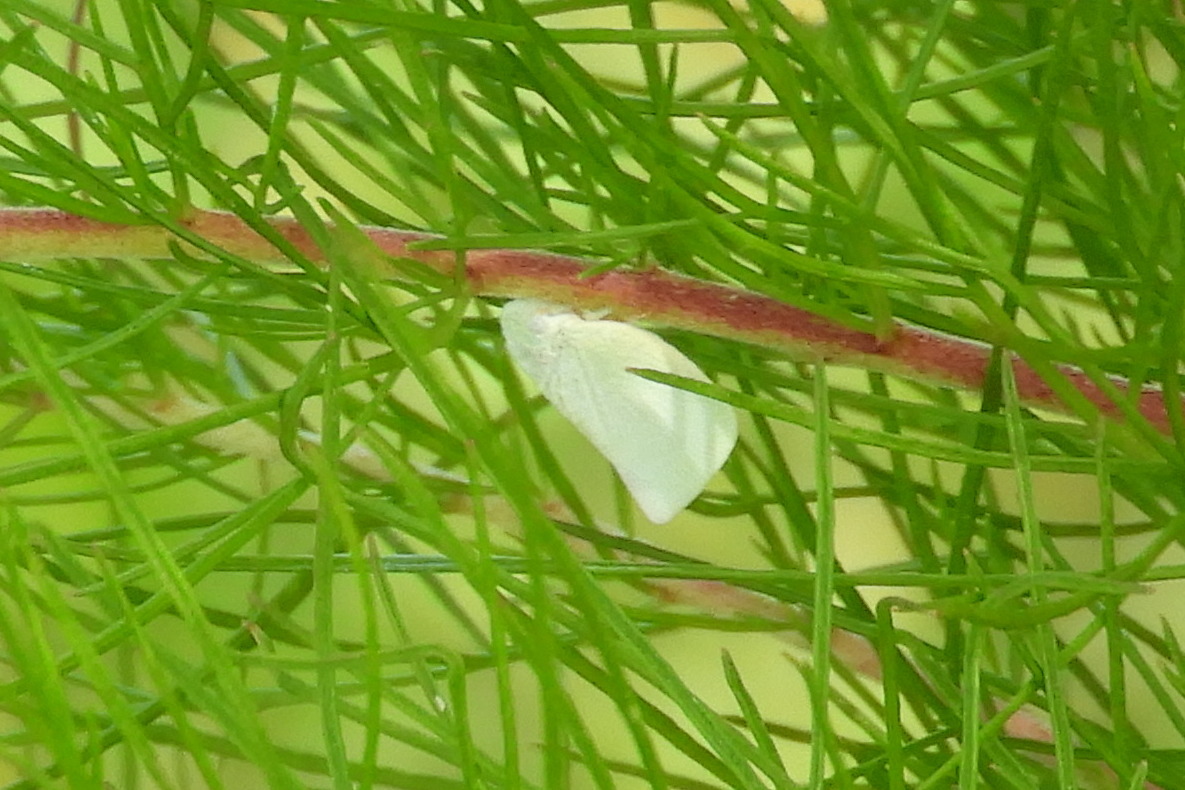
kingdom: Animalia
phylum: Arthropoda
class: Insecta
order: Hemiptera
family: Flatidae
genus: Flatormenis
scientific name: Flatormenis proxima
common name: Northern flatid planthopper
